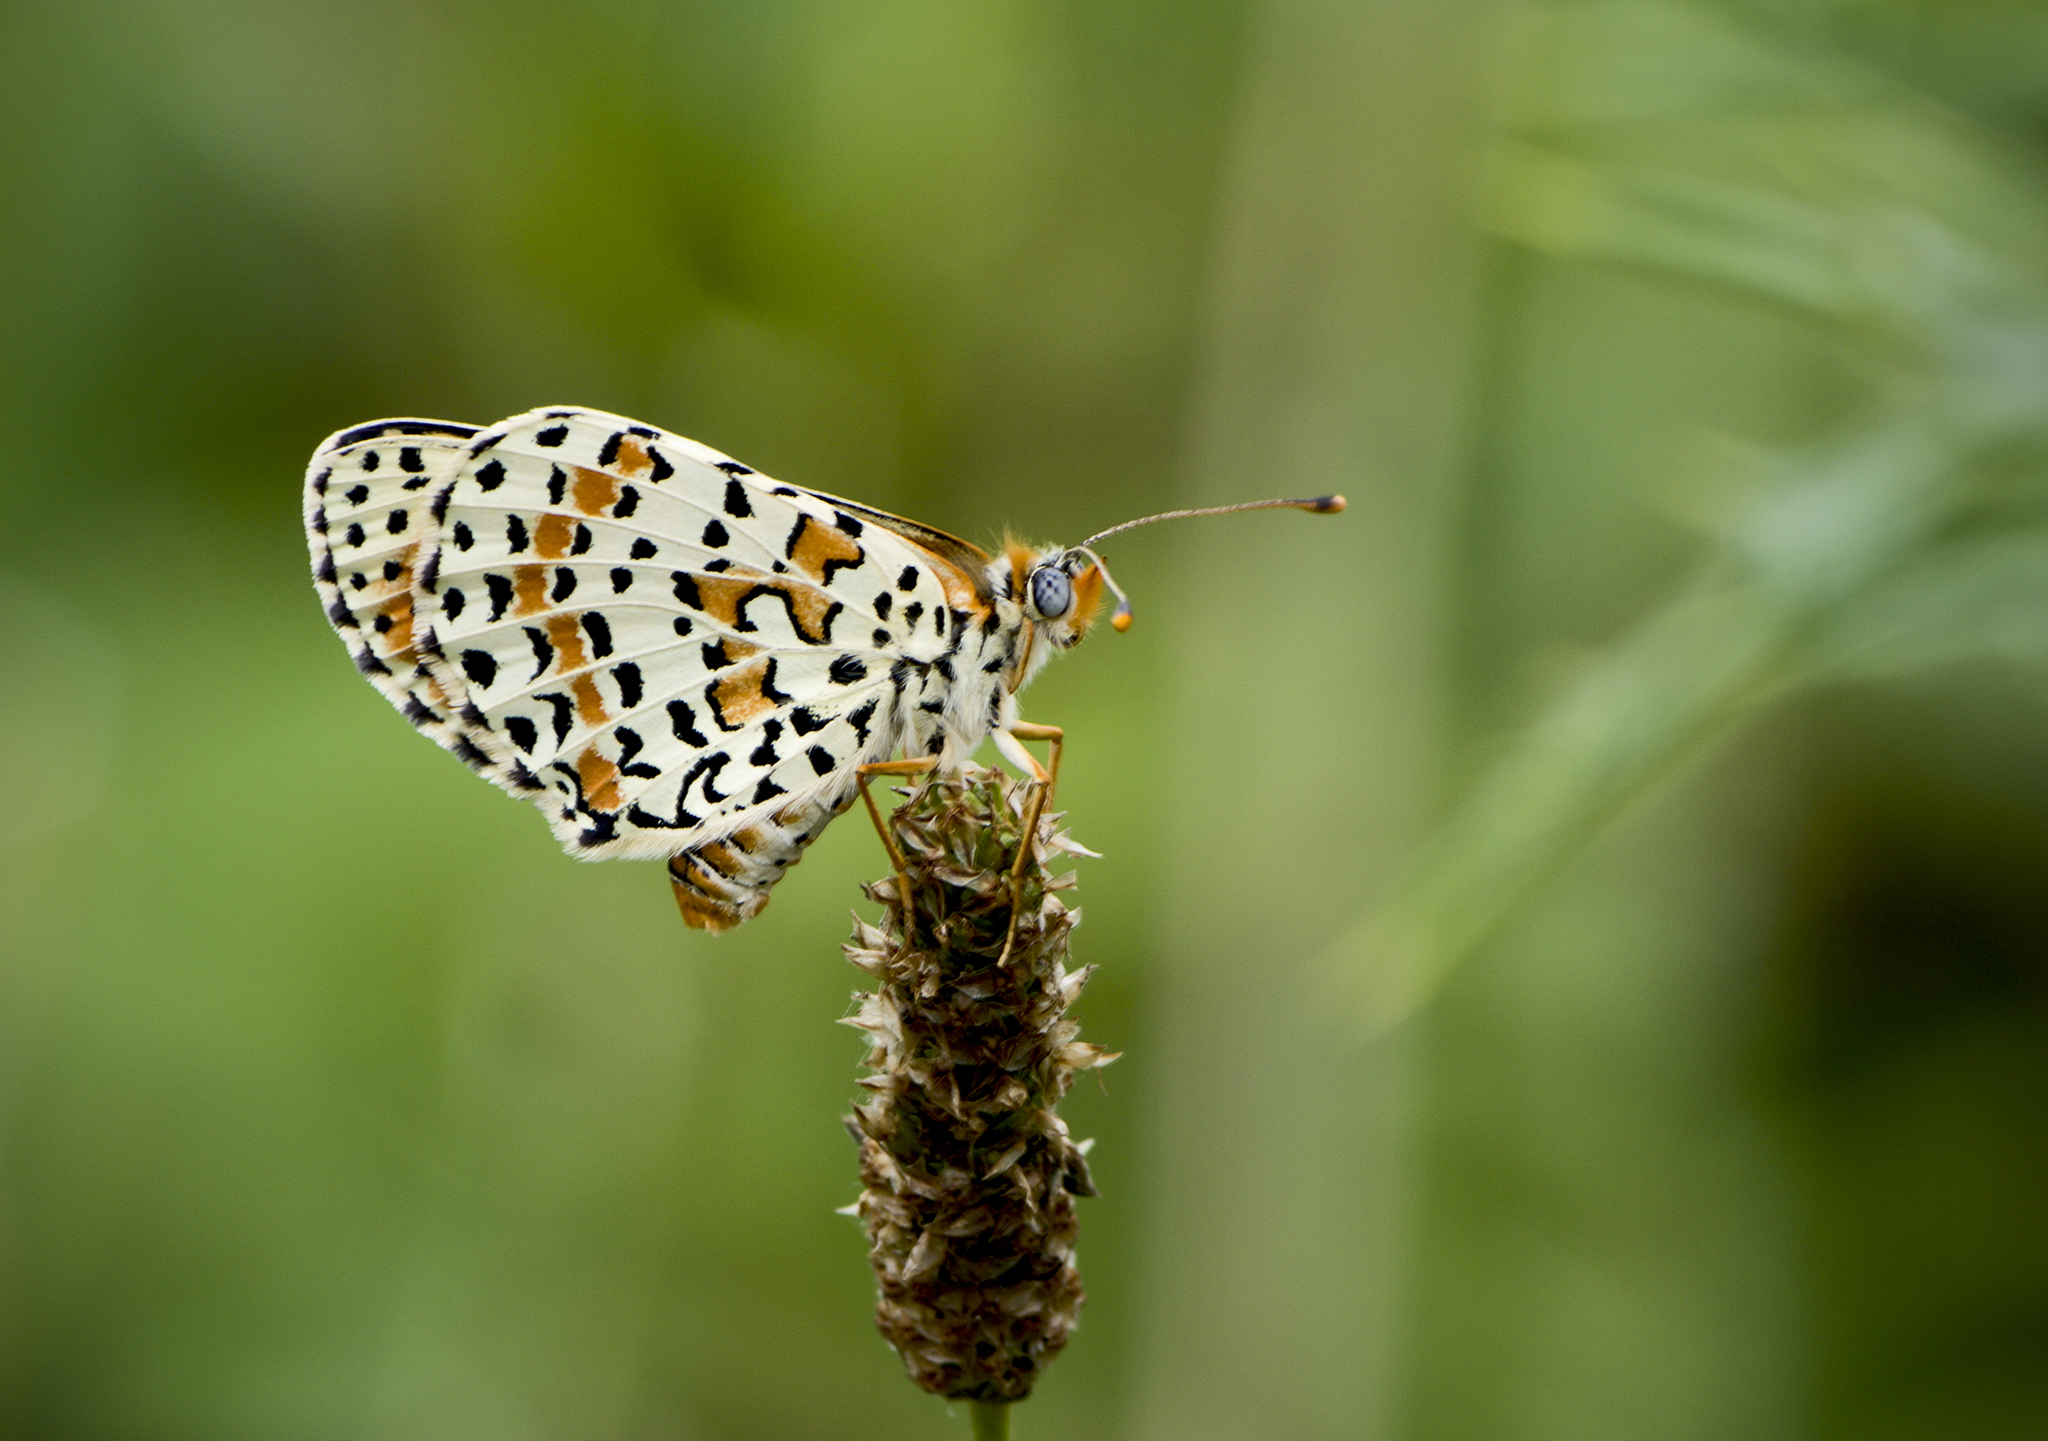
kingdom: Animalia
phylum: Arthropoda
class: Insecta
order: Lepidoptera
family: Nymphalidae
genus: Melitaea
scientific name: Melitaea didyma
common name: Spotted fritillary
